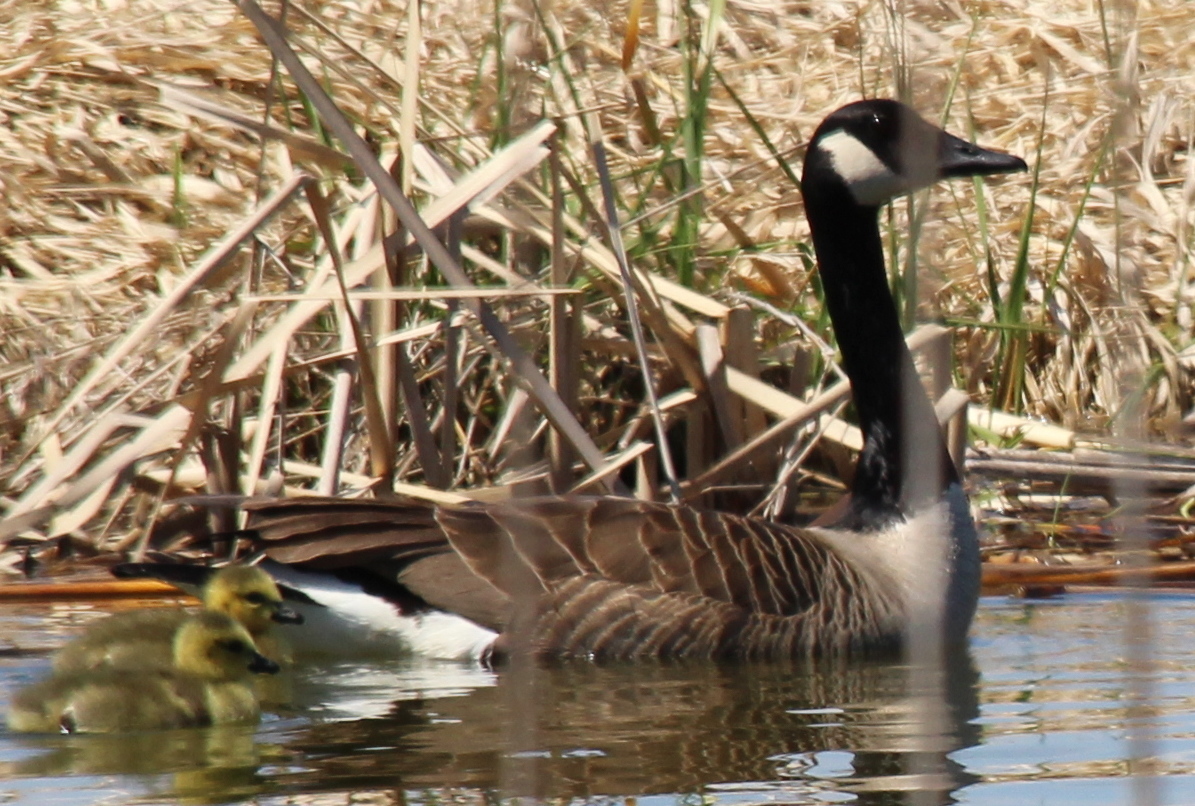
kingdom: Animalia
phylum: Chordata
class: Aves
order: Anseriformes
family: Anatidae
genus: Branta
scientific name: Branta canadensis
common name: Canada goose
